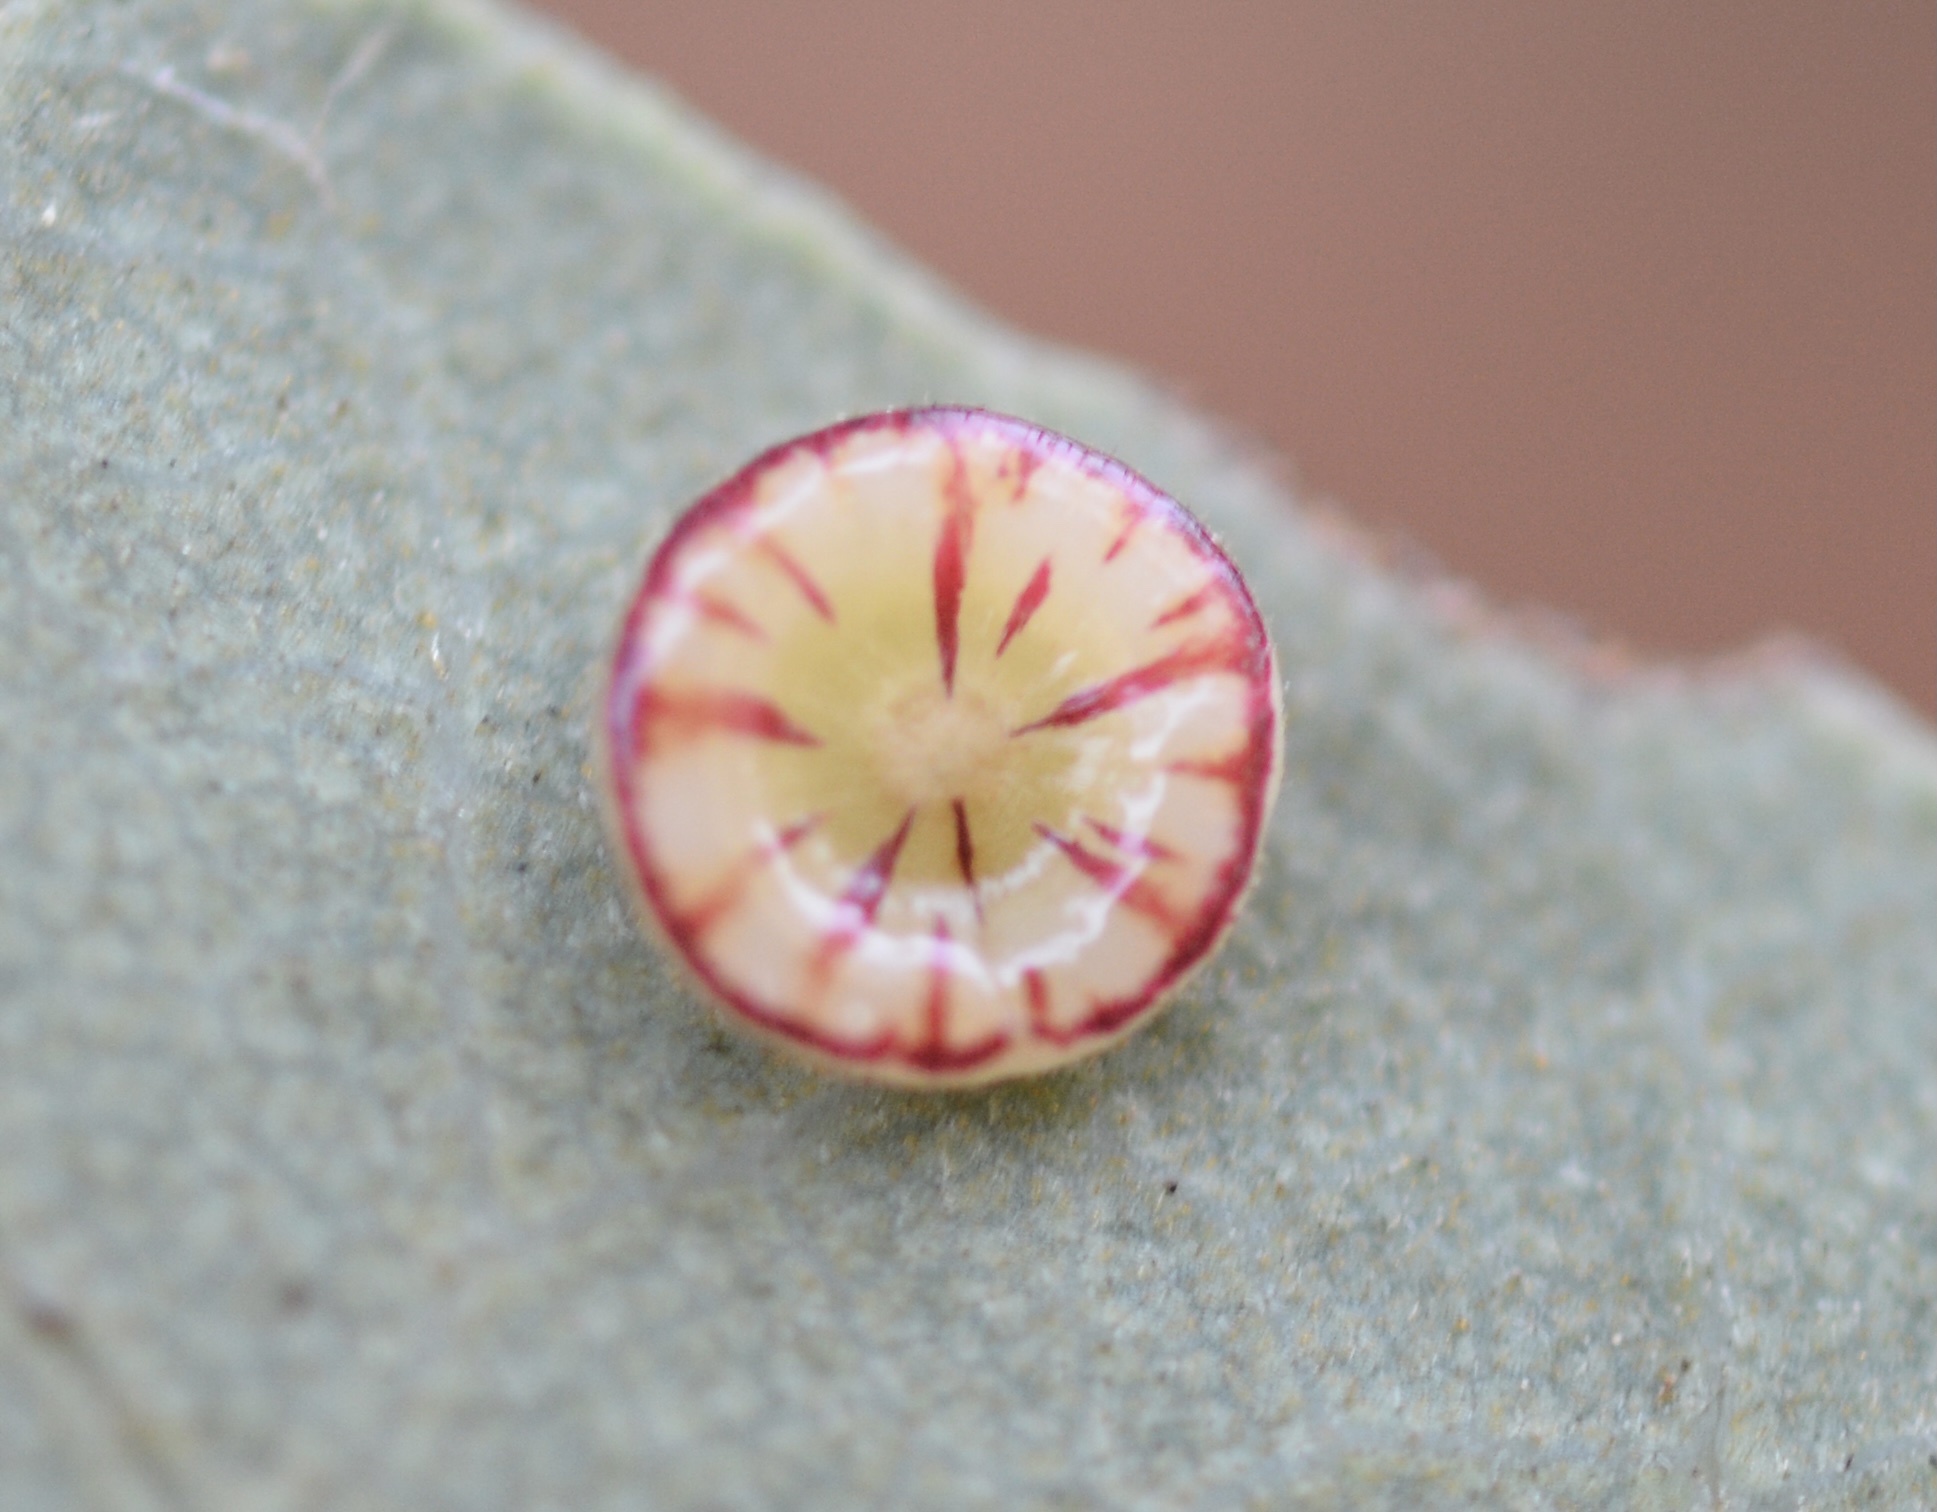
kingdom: Animalia
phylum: Arthropoda
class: Insecta
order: Hymenoptera
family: Cynipidae
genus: Andricus
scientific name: Andricus
